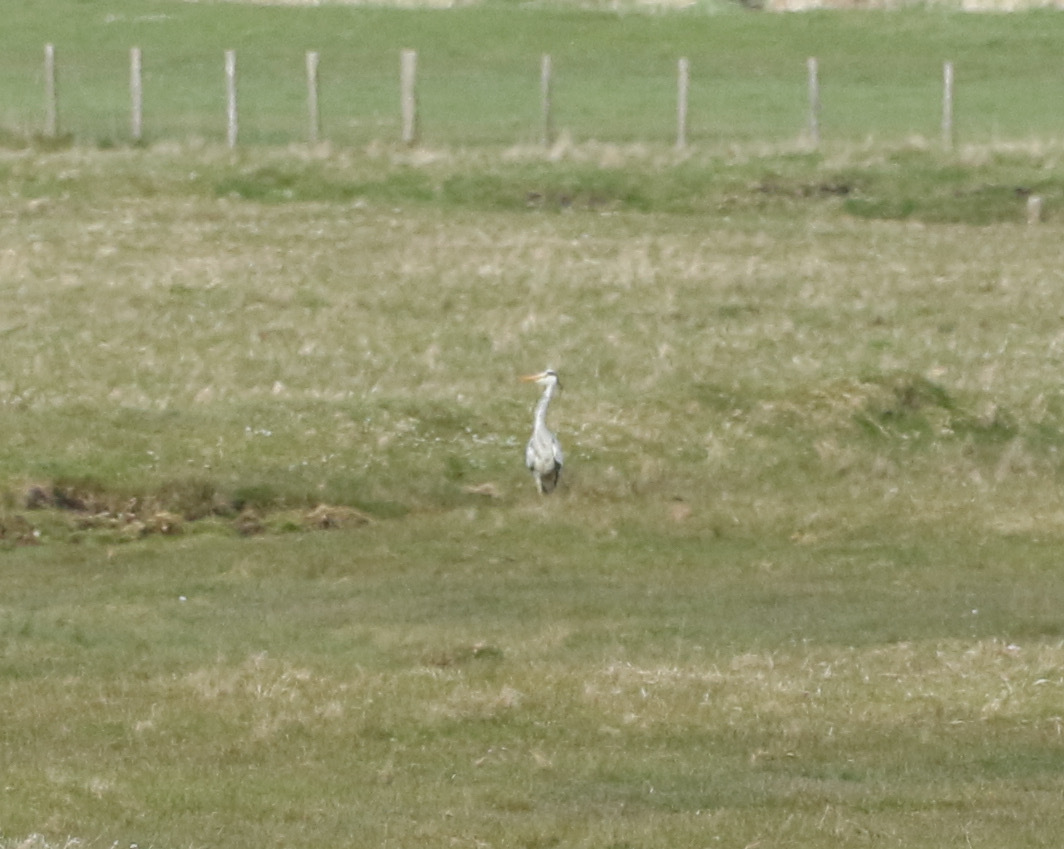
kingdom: Animalia
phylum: Chordata
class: Aves
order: Pelecaniformes
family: Ardeidae
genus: Ardea
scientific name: Ardea cinerea
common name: Grey heron
